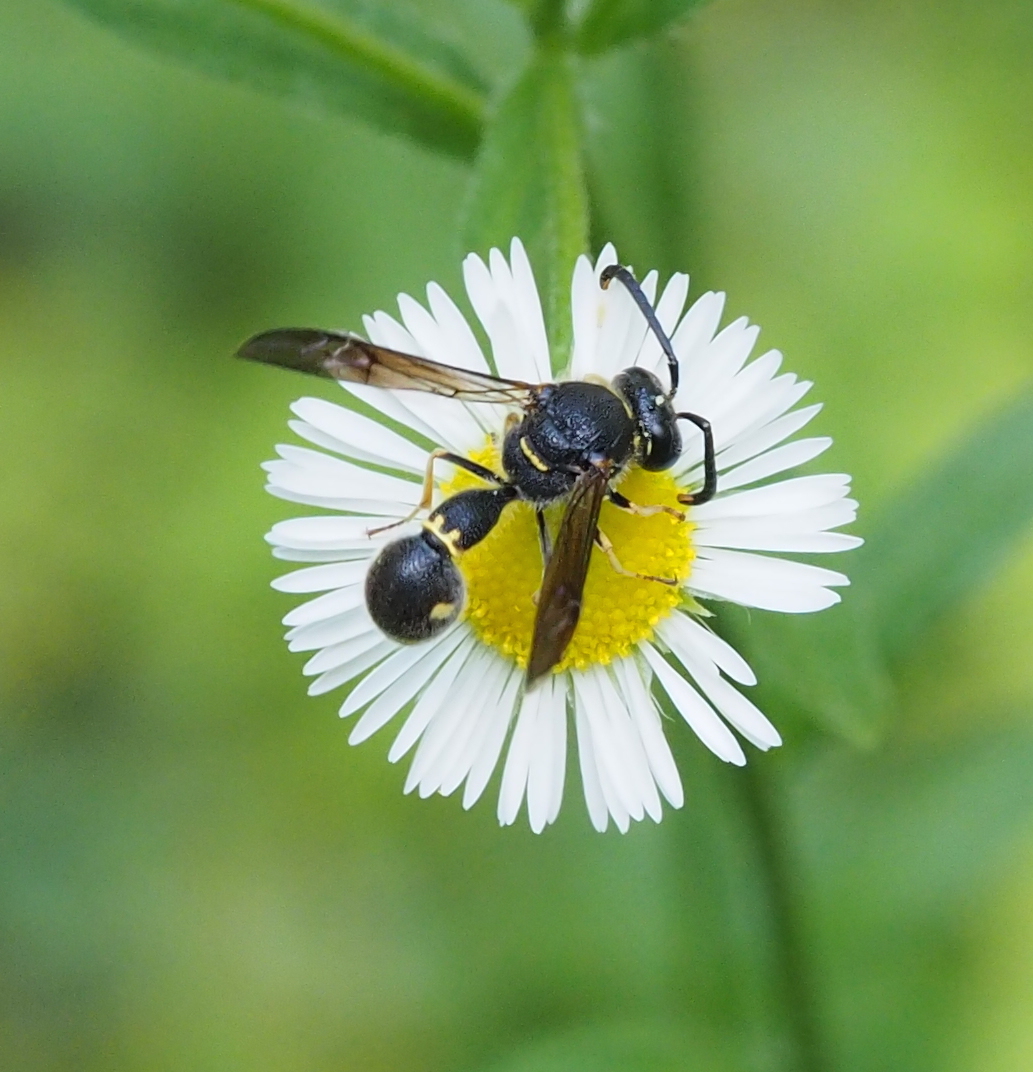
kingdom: Animalia
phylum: Arthropoda
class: Insecta
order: Hymenoptera
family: Vespidae
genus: Eumenes
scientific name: Eumenes
